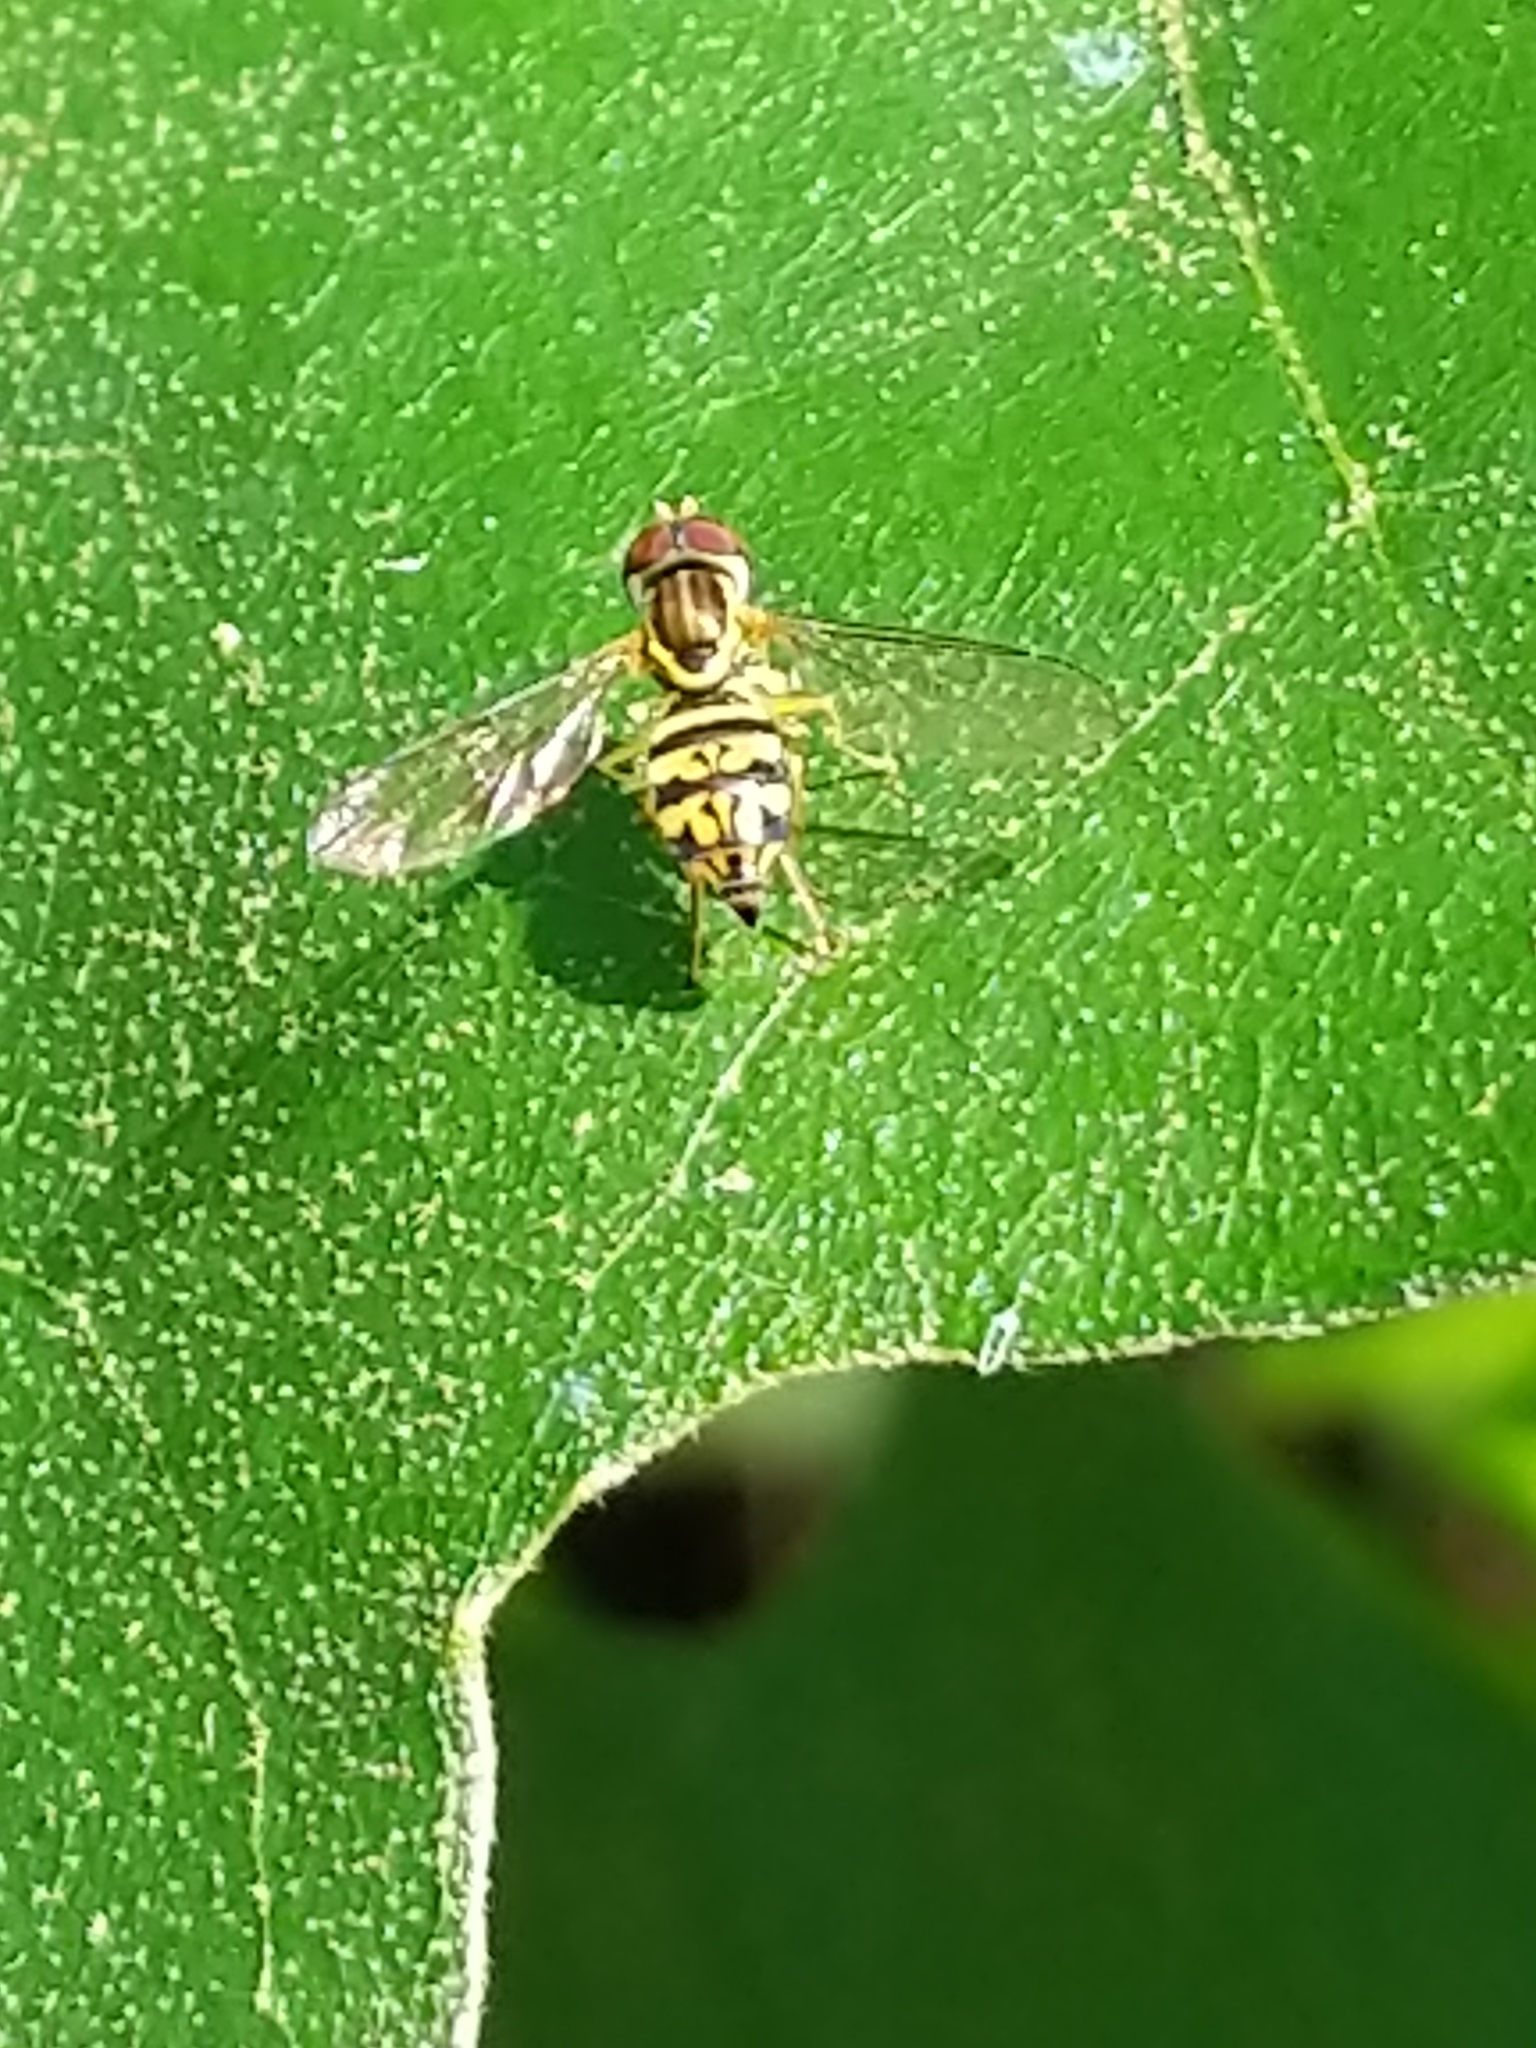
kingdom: Animalia
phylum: Arthropoda
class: Insecta
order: Diptera
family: Syrphidae
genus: Toxomerus
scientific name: Toxomerus geminatus
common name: Eastern calligrapher
